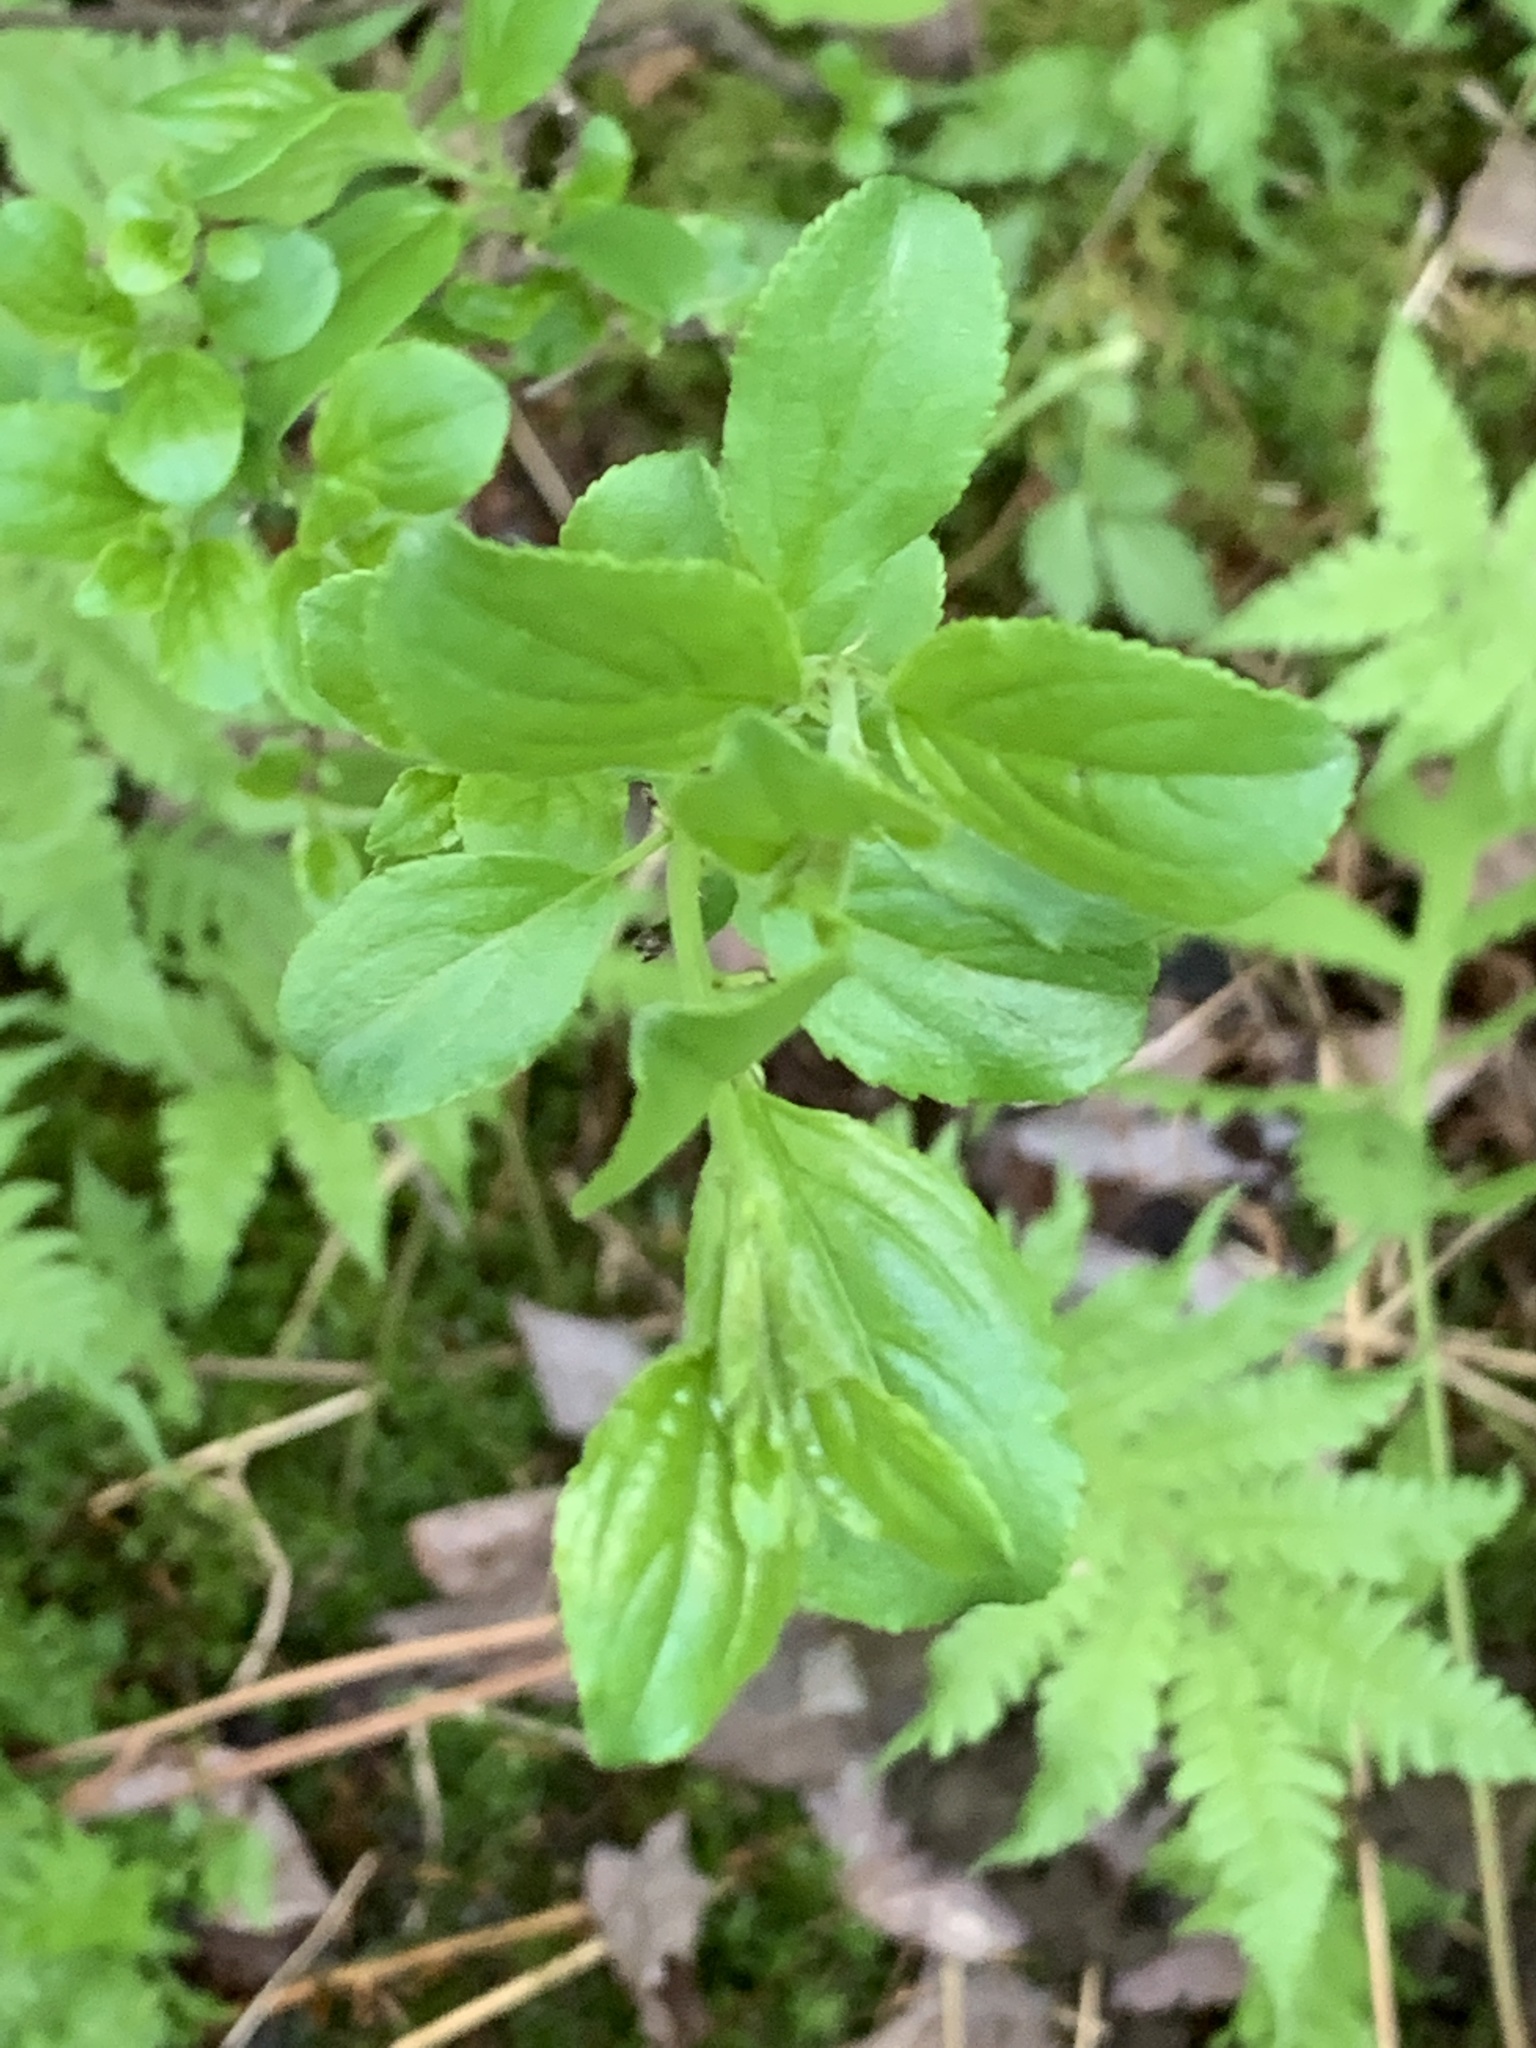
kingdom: Plantae
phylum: Tracheophyta
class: Magnoliopsida
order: Rosales
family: Rhamnaceae
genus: Rhamnus
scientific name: Rhamnus cathartica
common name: Common buckthorn
